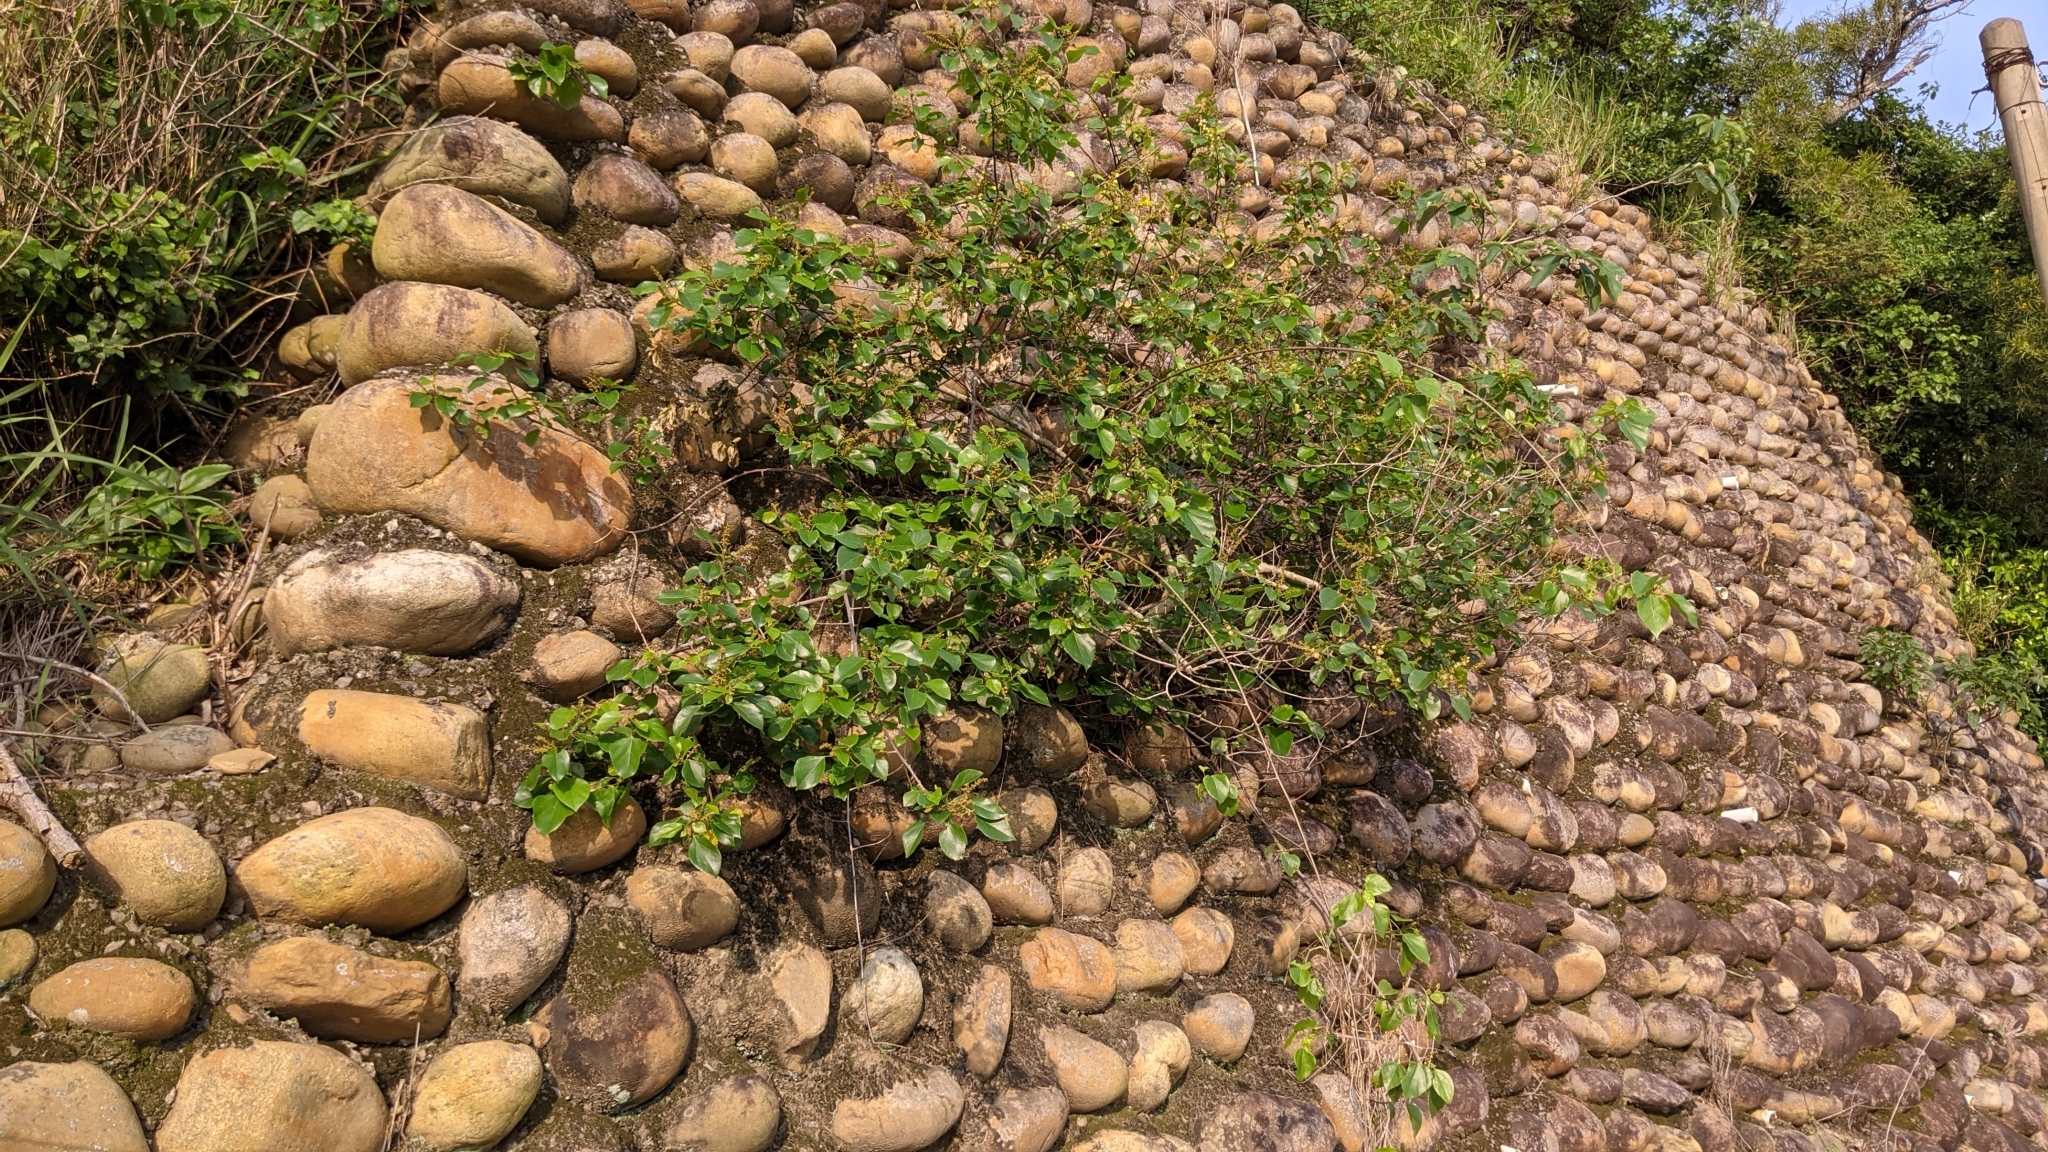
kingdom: Plantae
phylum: Tracheophyta
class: Magnoliopsida
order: Malpighiales
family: Euphorbiaceae
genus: Mallotus
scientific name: Mallotus repandus
